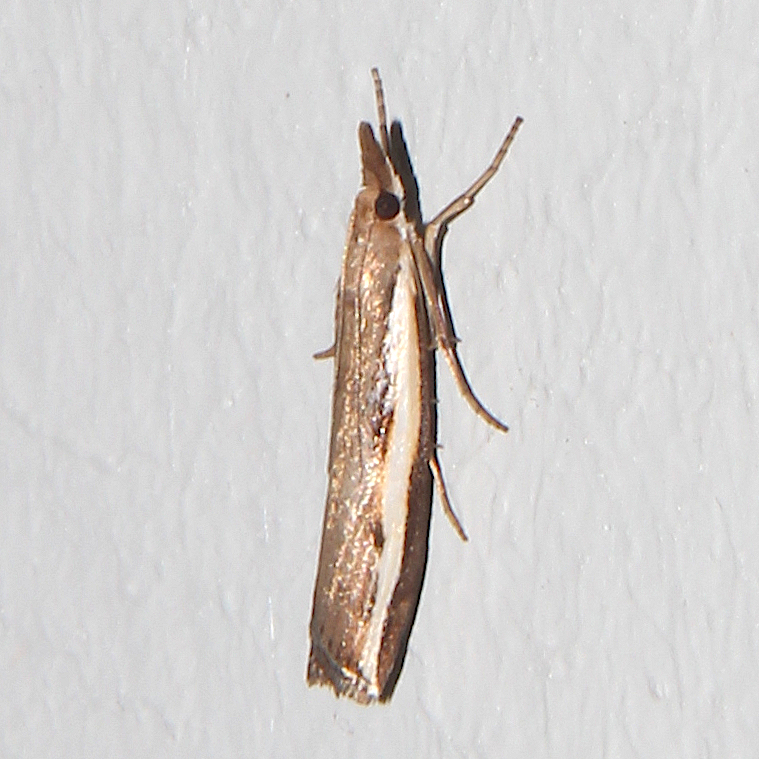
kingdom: Animalia
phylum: Arthropoda
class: Insecta
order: Lepidoptera
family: Crambidae
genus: Orocrambus
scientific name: Orocrambus flexuosellus
